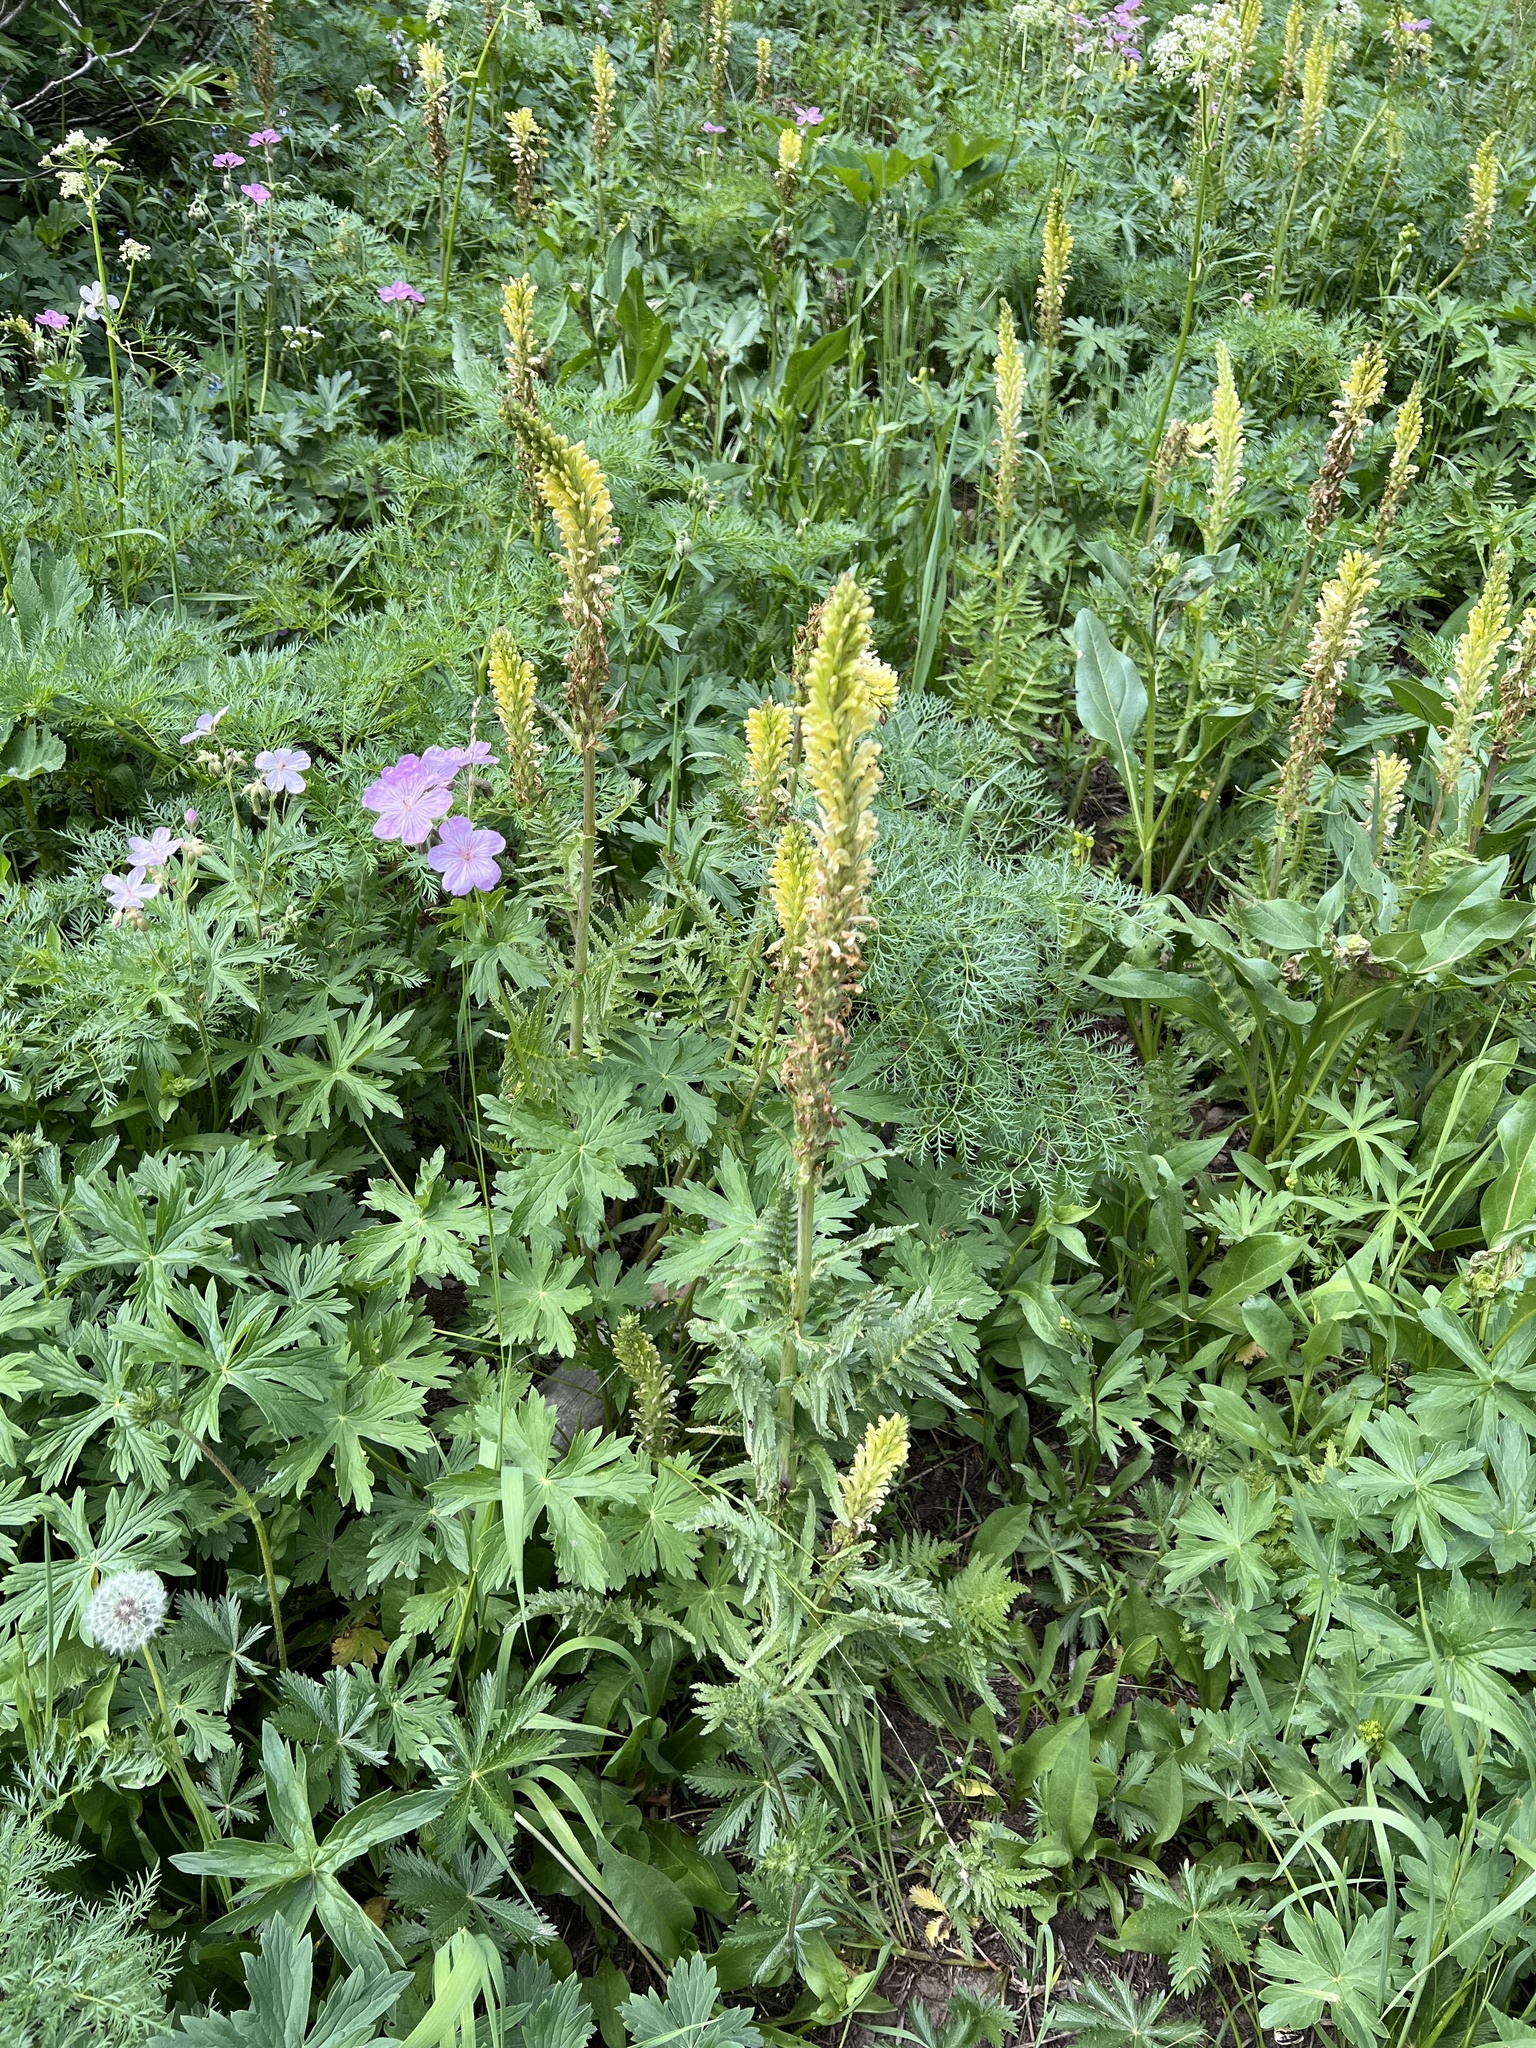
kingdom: Plantae
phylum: Tracheophyta
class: Magnoliopsida
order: Lamiales
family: Orobanchaceae
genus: Pedicularis
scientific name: Pedicularis bracteosa
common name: Bracted lousewort
